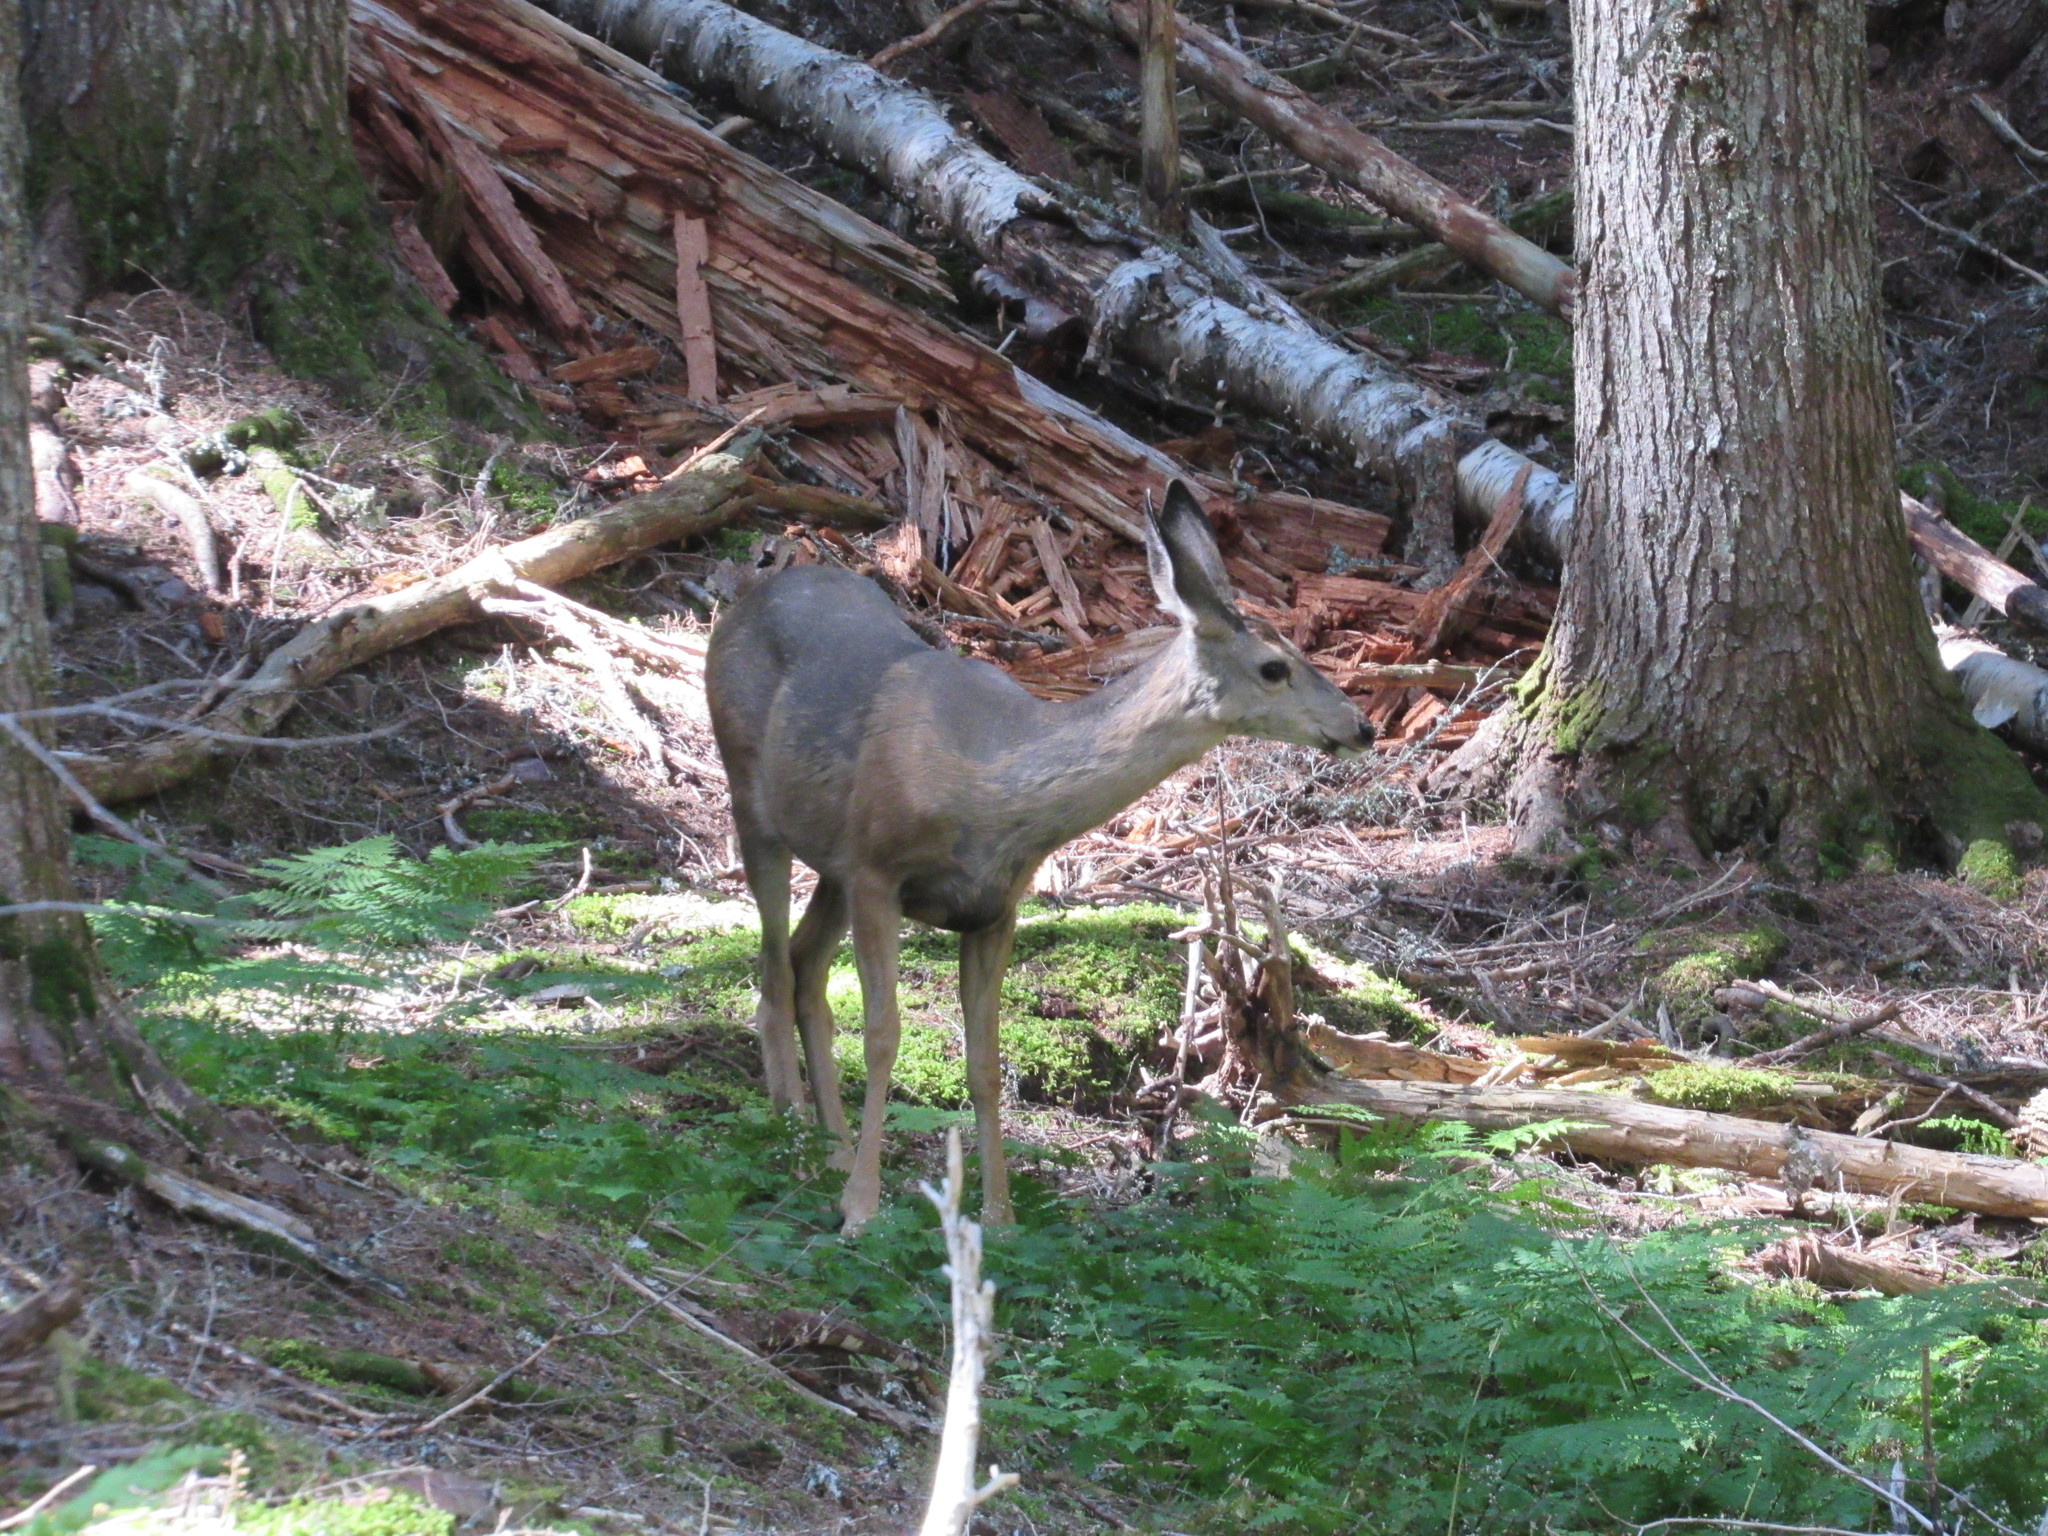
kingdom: Animalia
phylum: Chordata
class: Mammalia
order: Artiodactyla
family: Cervidae
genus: Odocoileus
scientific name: Odocoileus hemionus
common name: Mule deer
